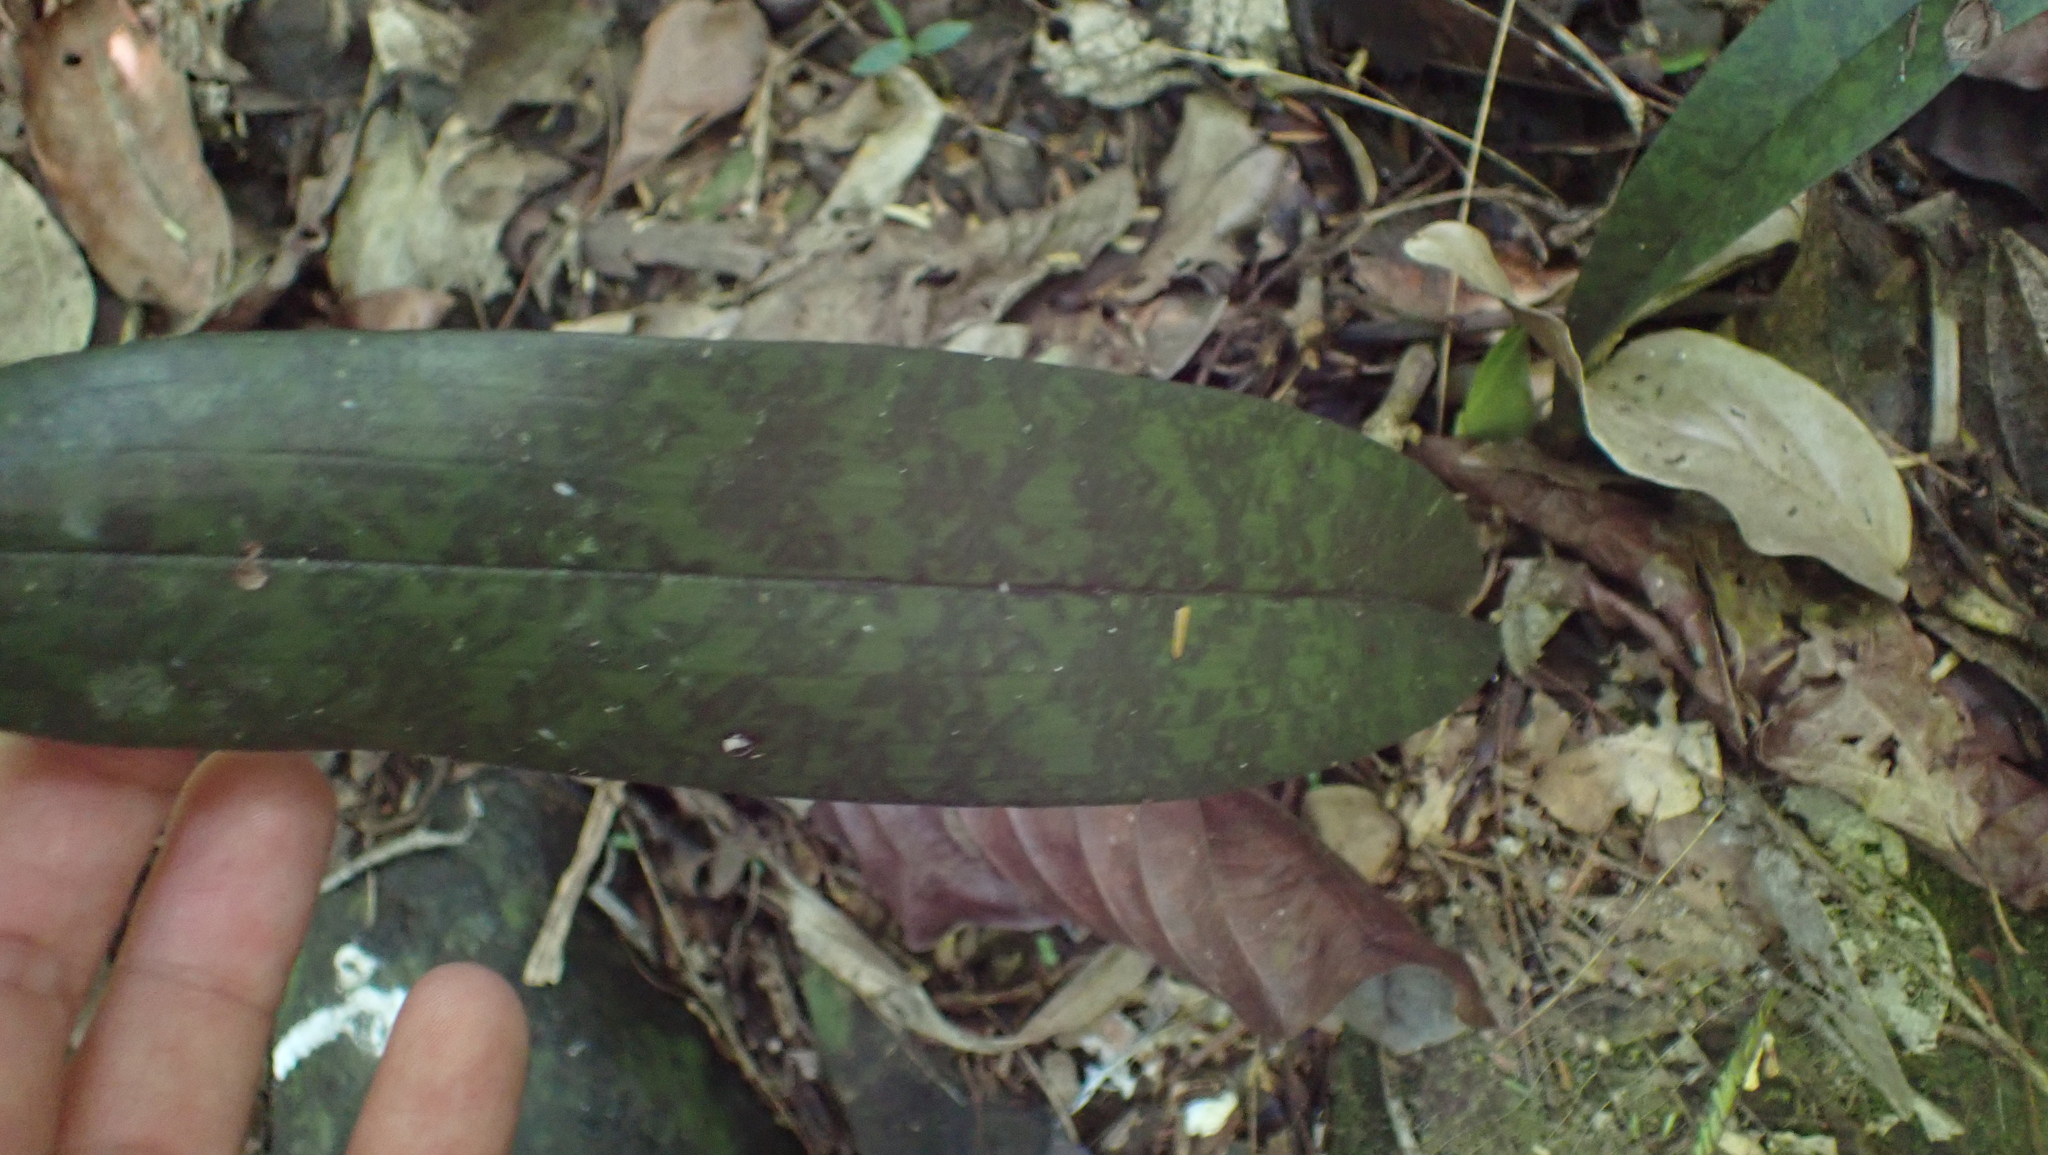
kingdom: Plantae
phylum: Tracheophyta
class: Liliopsida
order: Asparagales
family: Orchidaceae
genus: Eulophia
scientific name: Eulophia maculata
